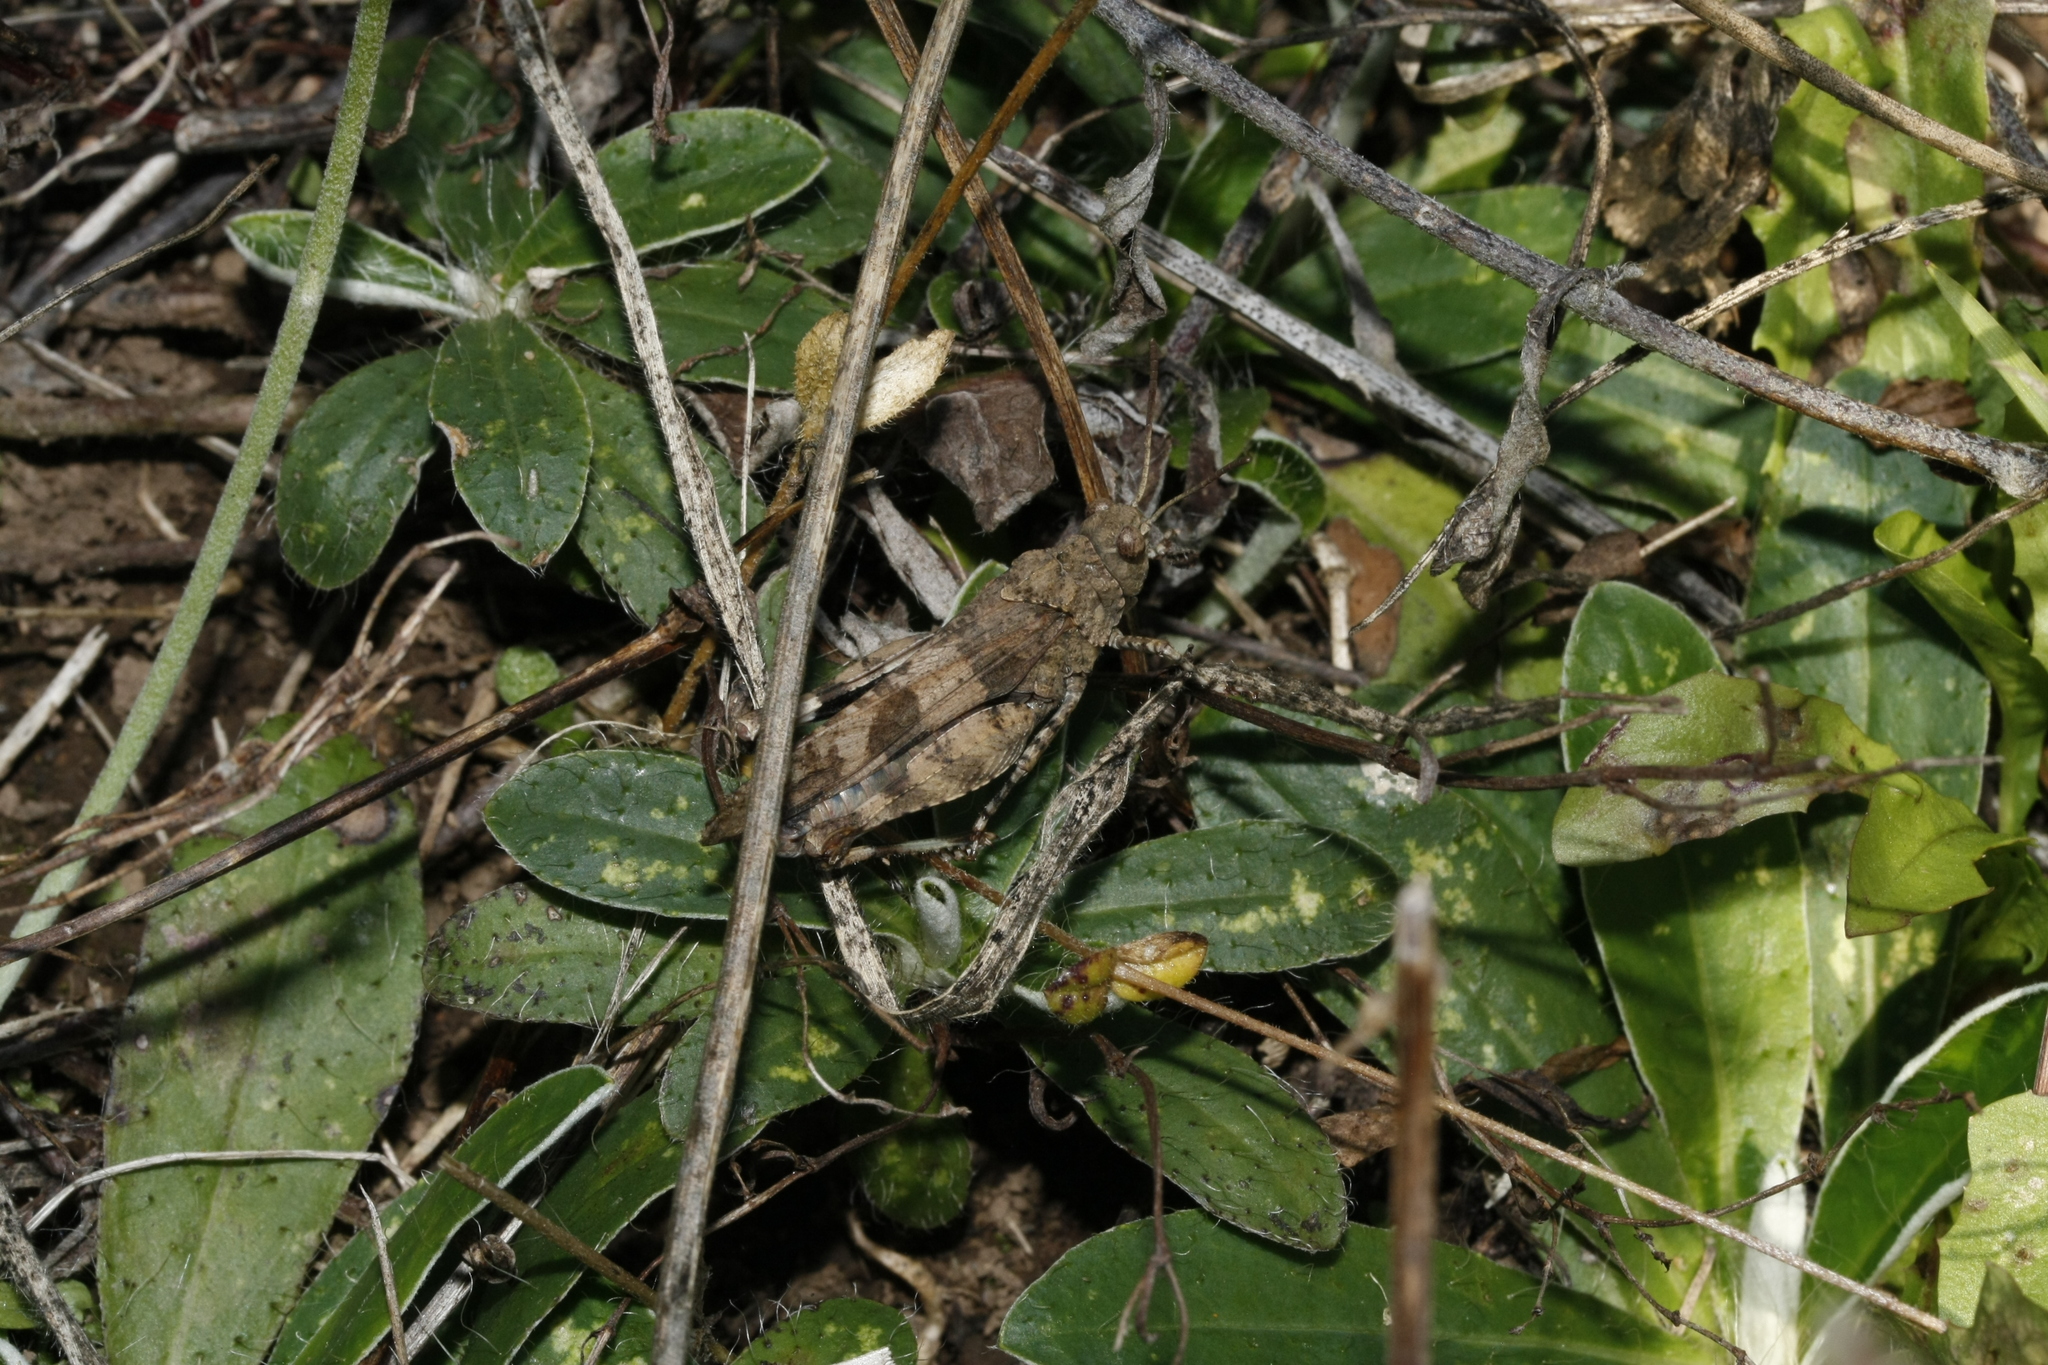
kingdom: Animalia
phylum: Arthropoda
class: Insecta
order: Orthoptera
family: Acrididae
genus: Oedipoda
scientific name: Oedipoda caerulescens
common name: Blue-winged grasshopper
